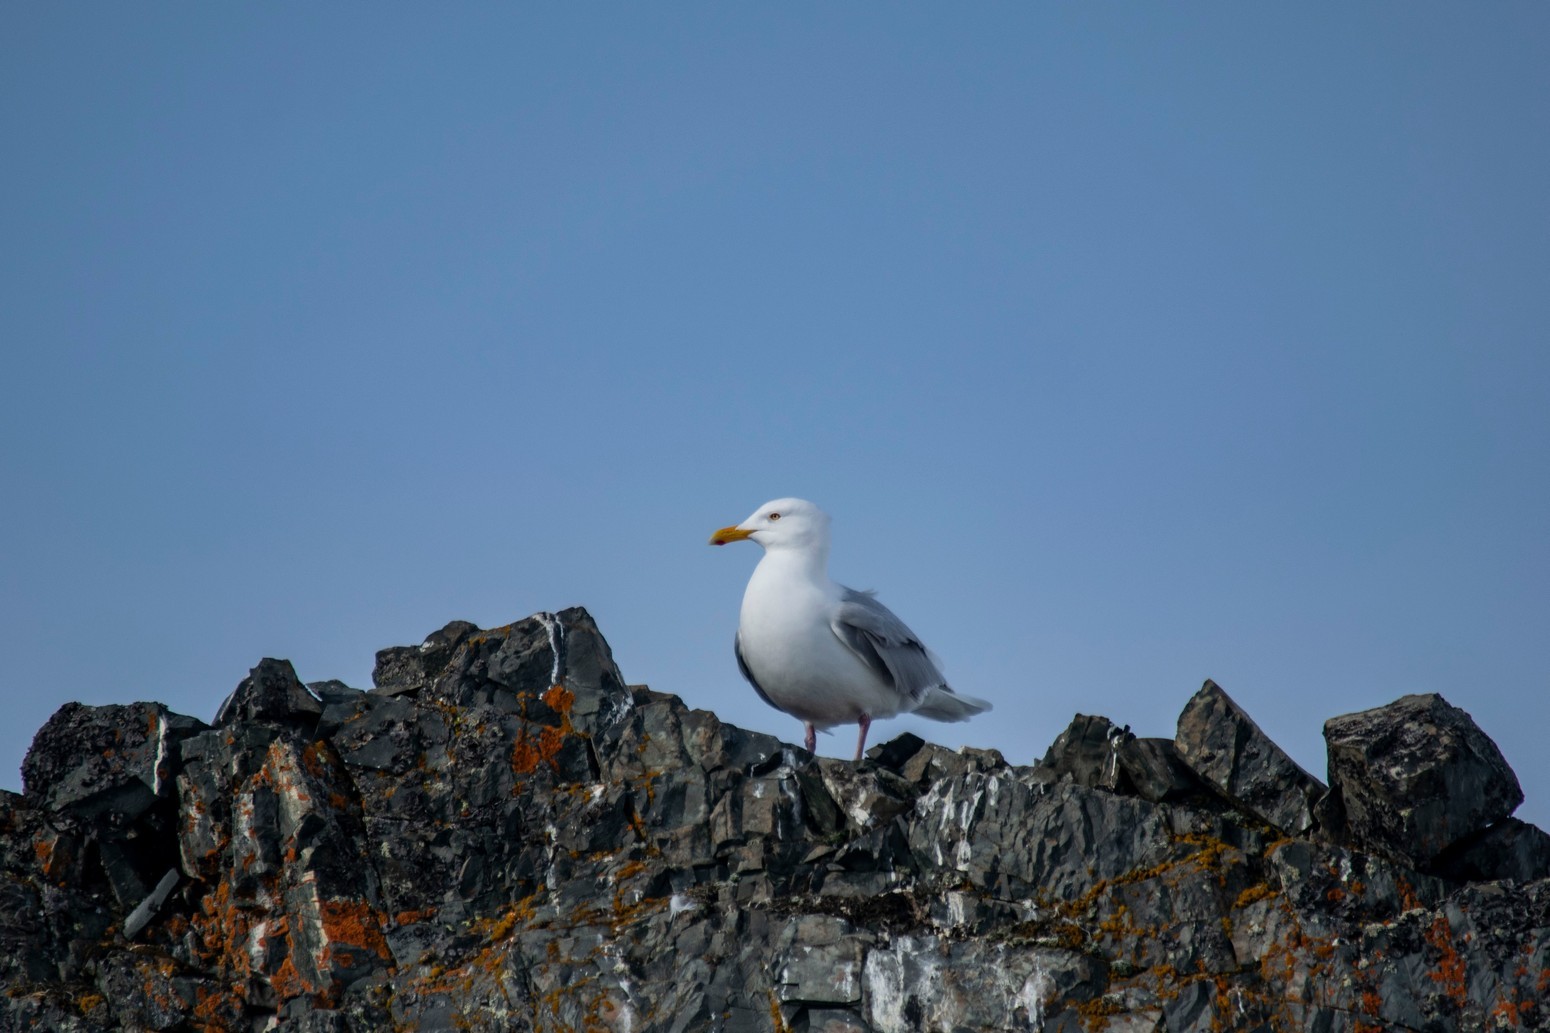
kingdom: Animalia
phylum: Chordata
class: Aves
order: Charadriiformes
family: Laridae
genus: Larus
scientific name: Larus hyperboreus
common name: Glaucous gull
